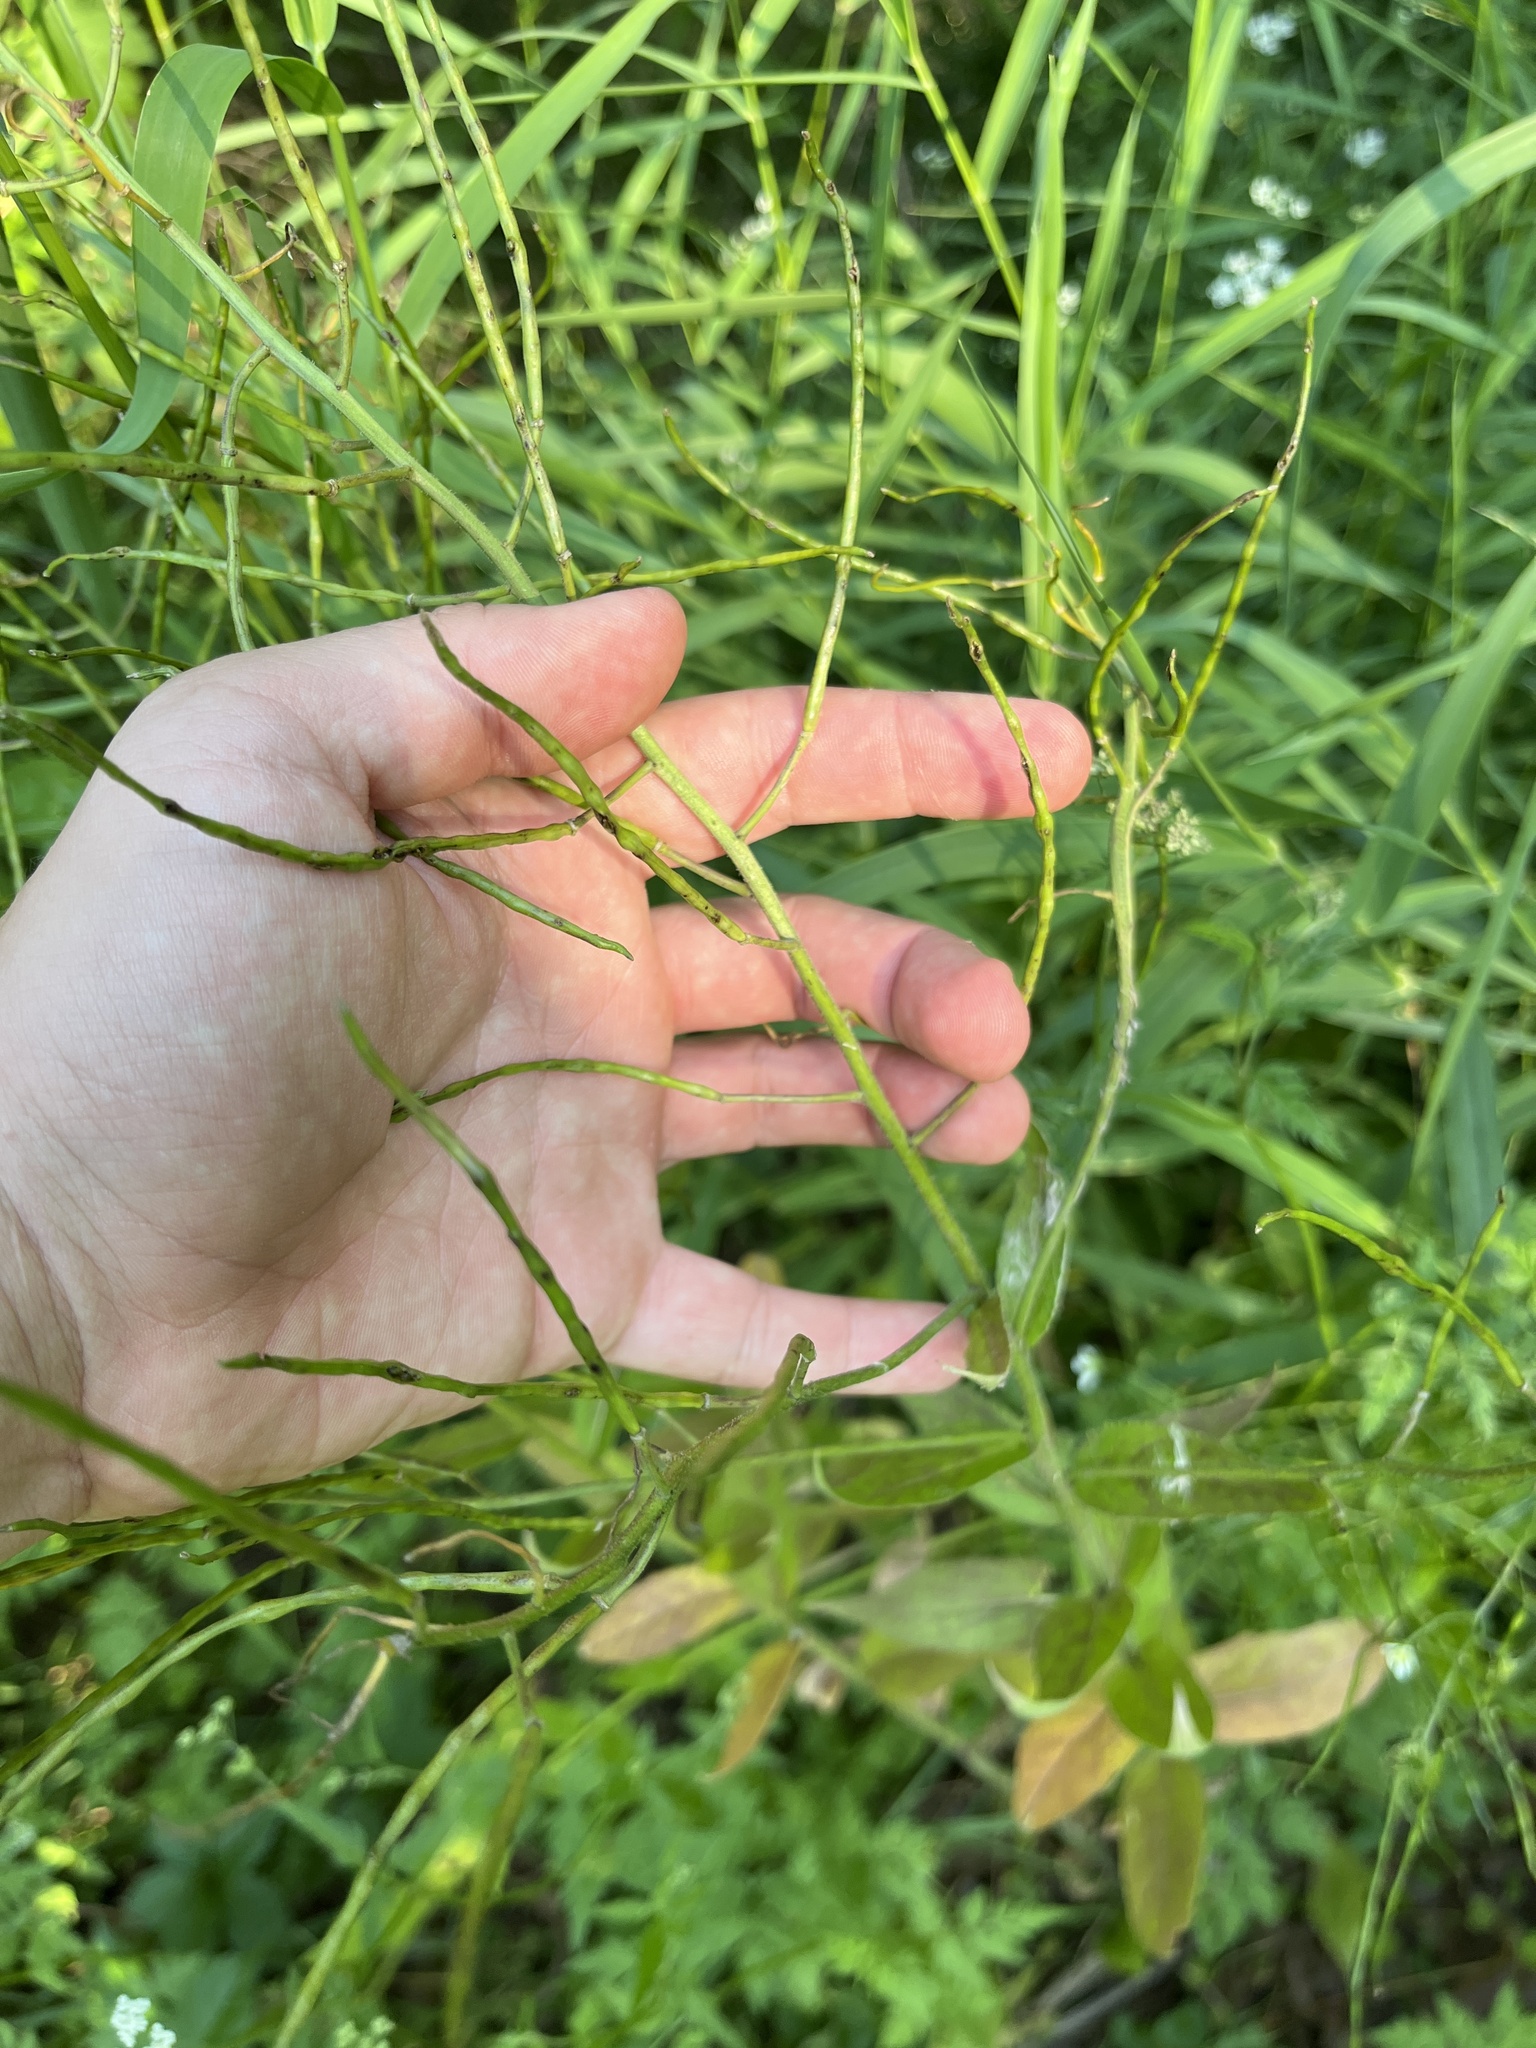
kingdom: Plantae
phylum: Tracheophyta
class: Magnoliopsida
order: Brassicales
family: Brassicaceae
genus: Hesperis
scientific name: Hesperis matronalis
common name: Dame's-violet
